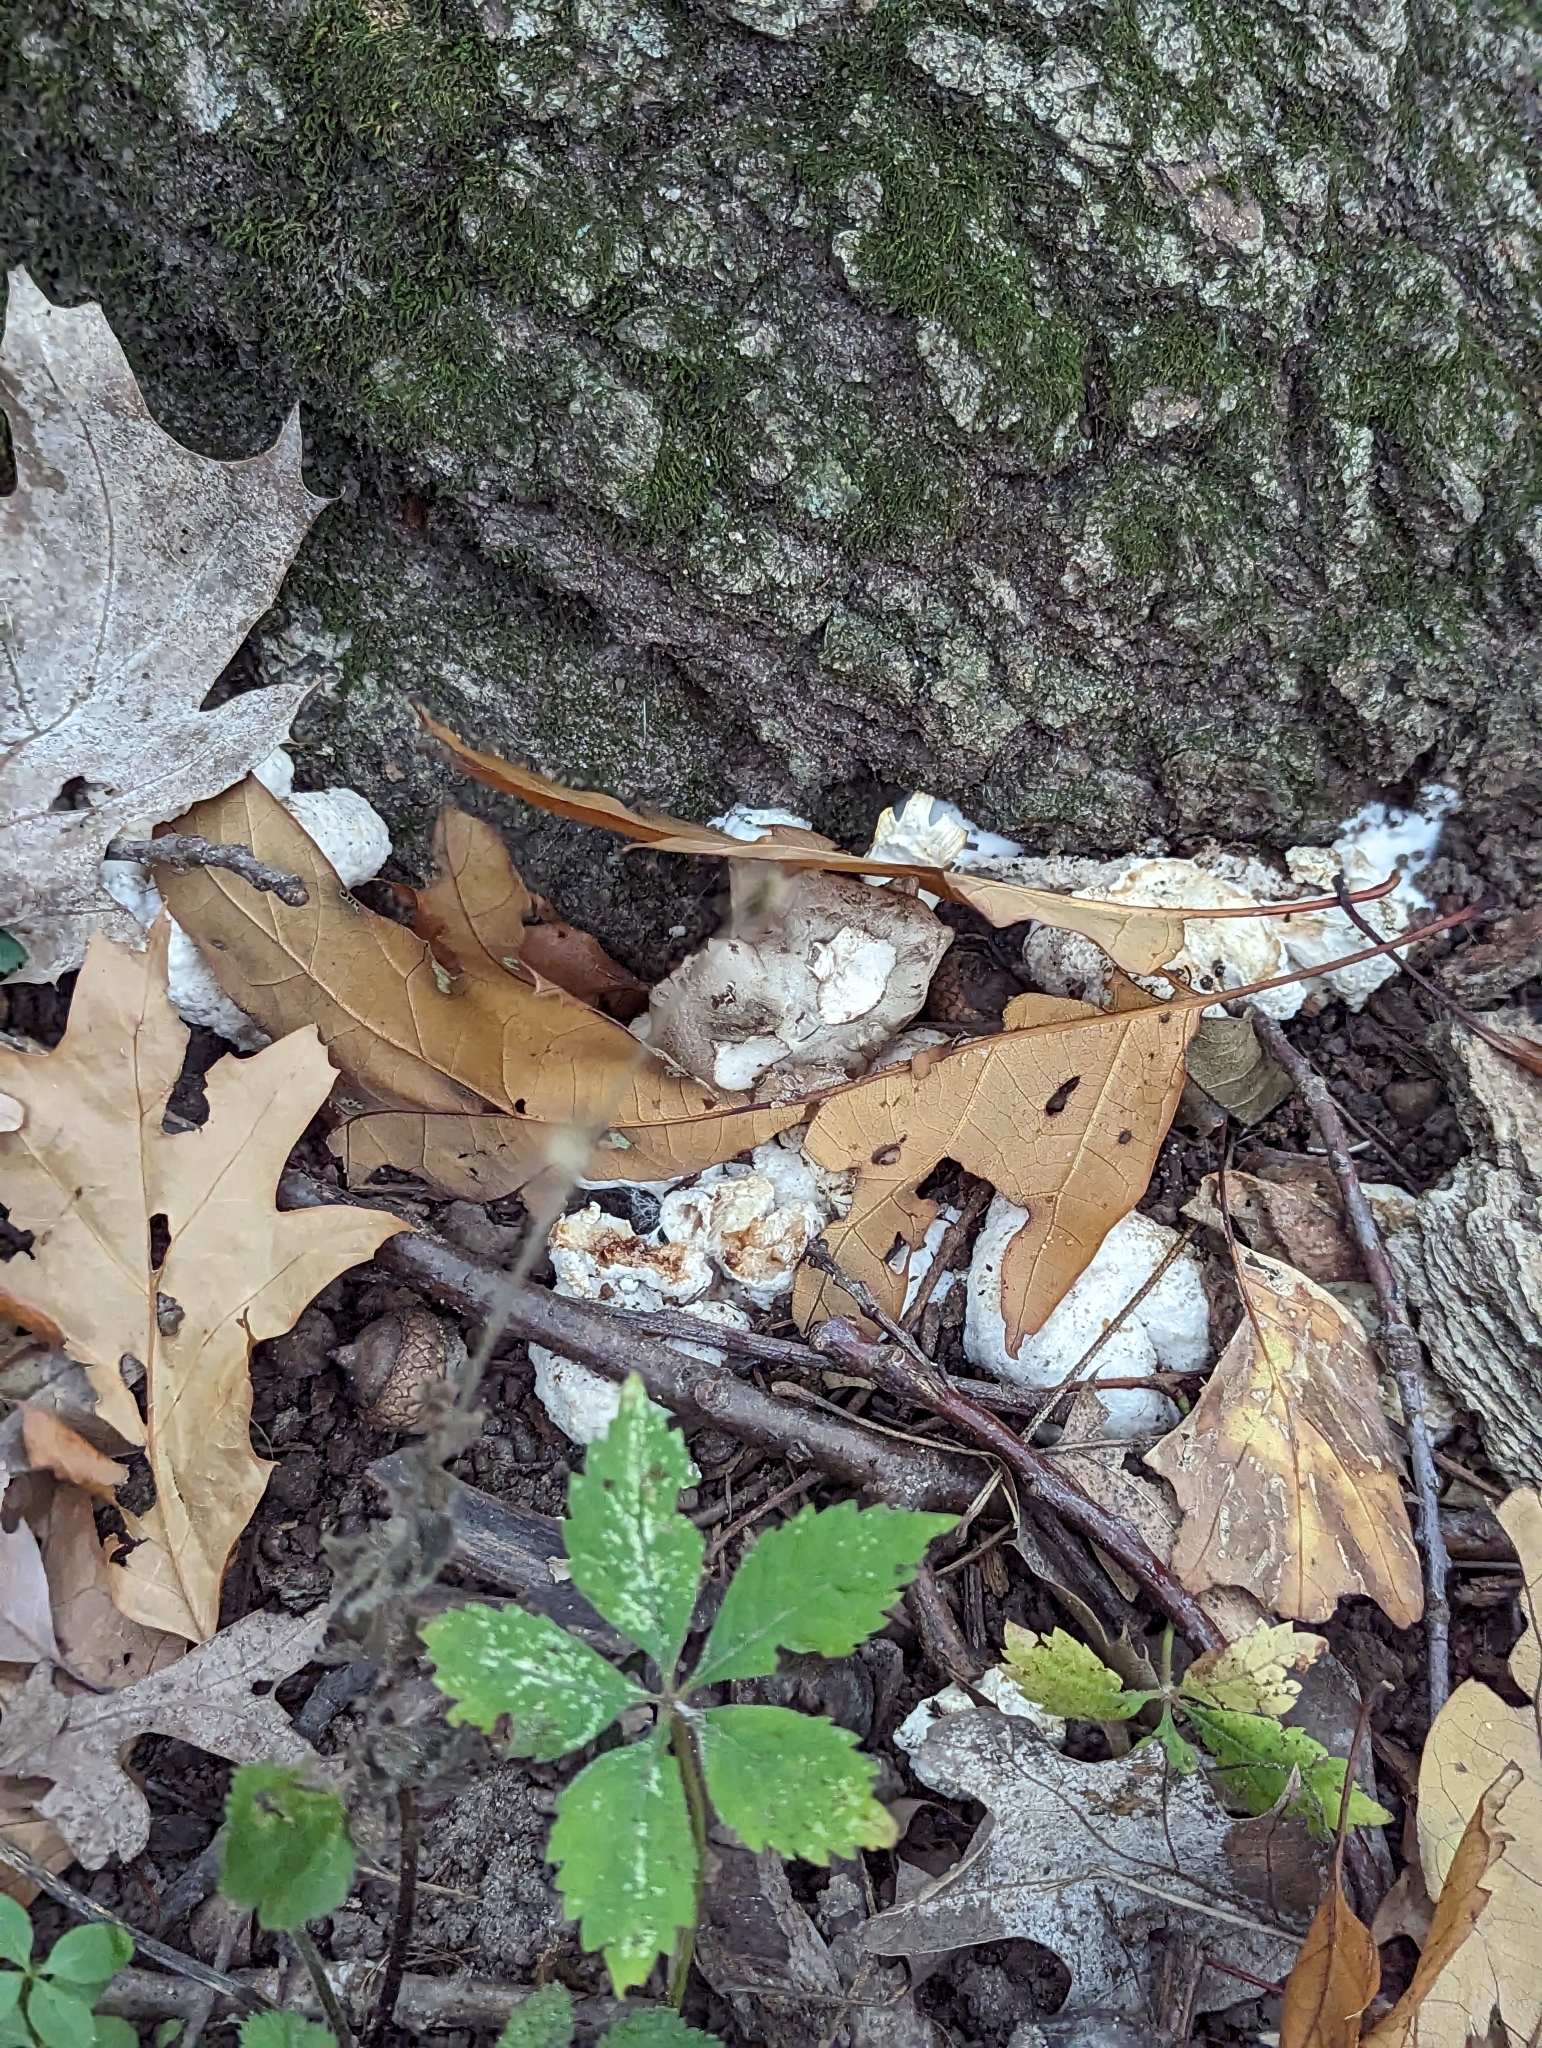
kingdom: Fungi
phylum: Basidiomycota
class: Agaricomycetes
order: Agaricales
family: Entolomataceae
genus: Entoloma
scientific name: Entoloma abortivum
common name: Aborted entoloma
